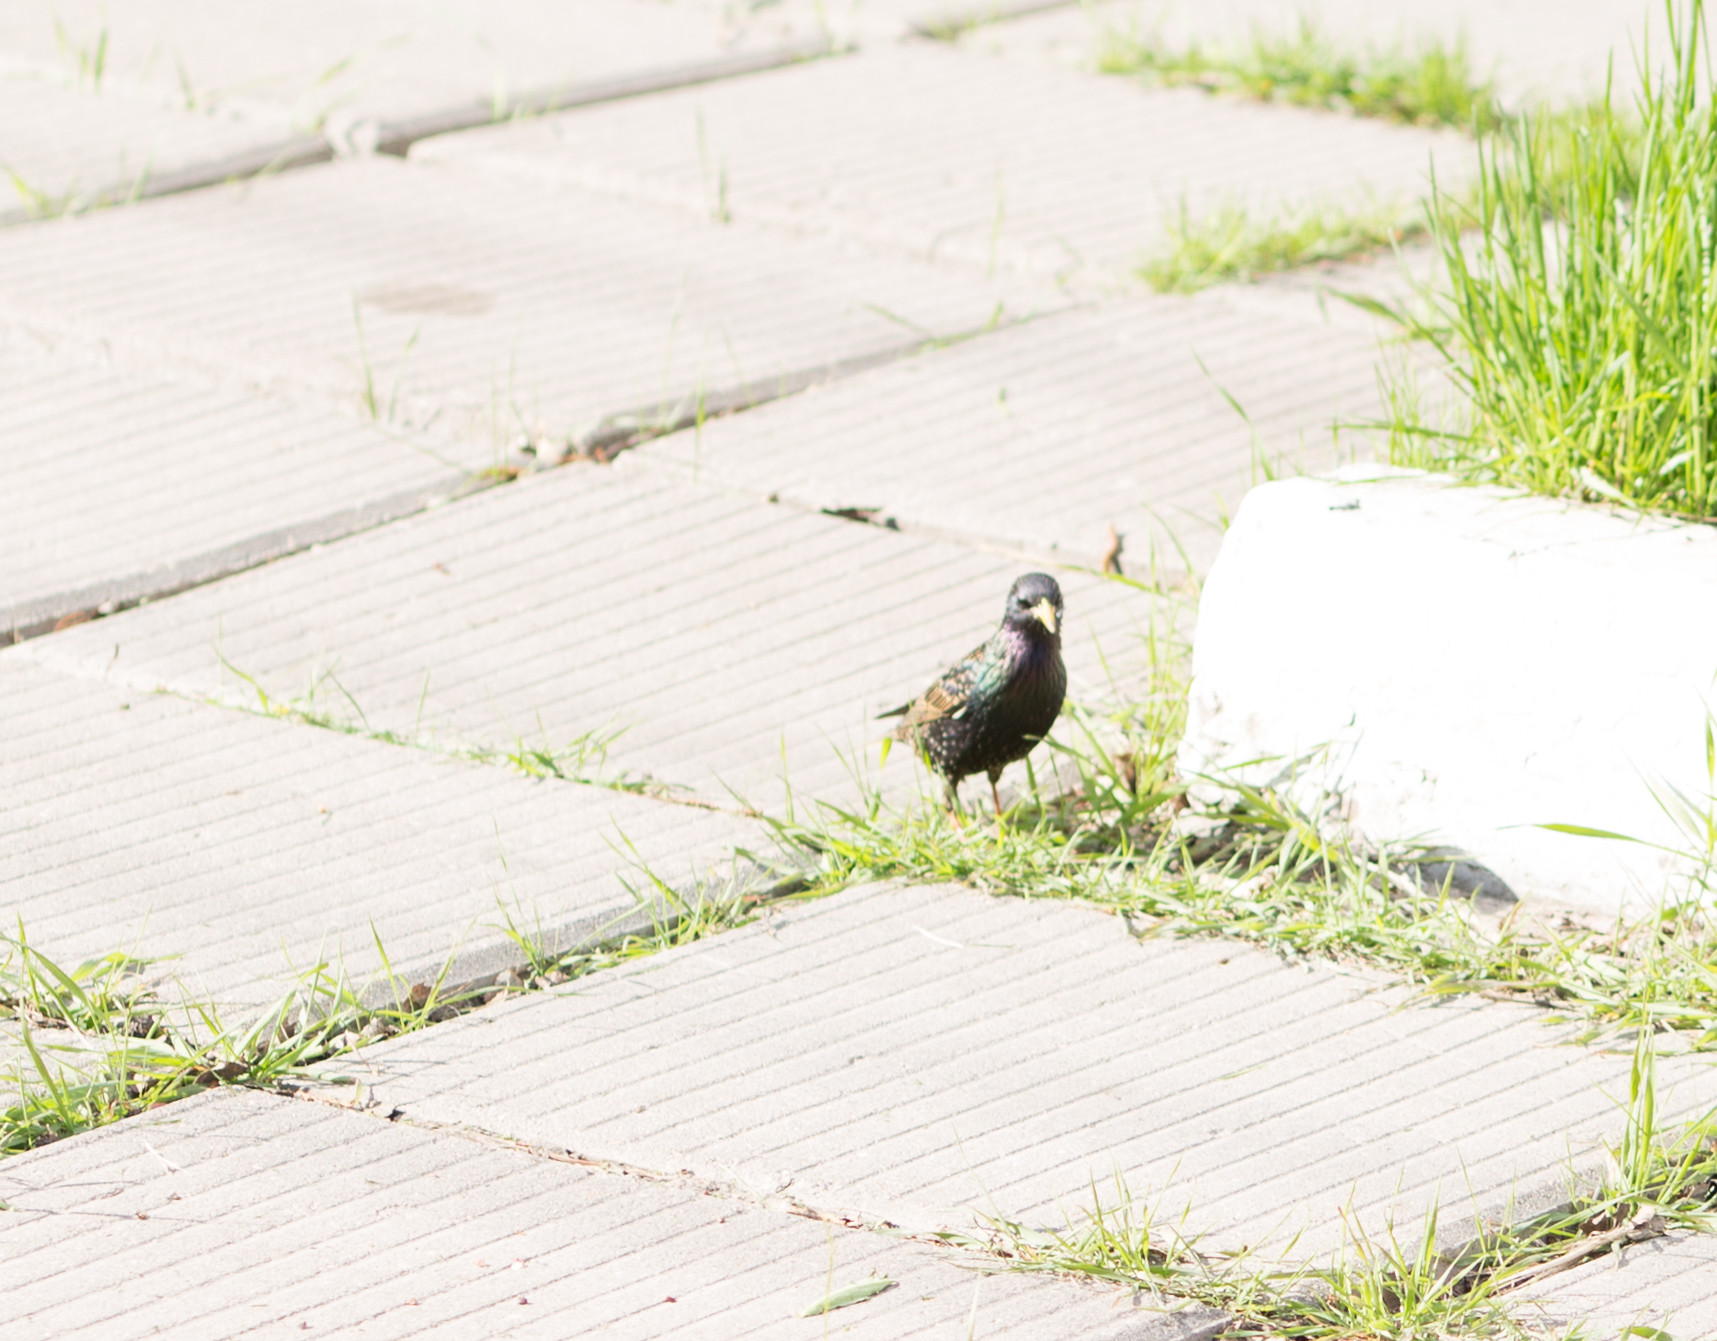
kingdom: Animalia
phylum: Chordata
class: Aves
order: Passeriformes
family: Sturnidae
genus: Sturnus
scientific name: Sturnus vulgaris
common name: Common starling
